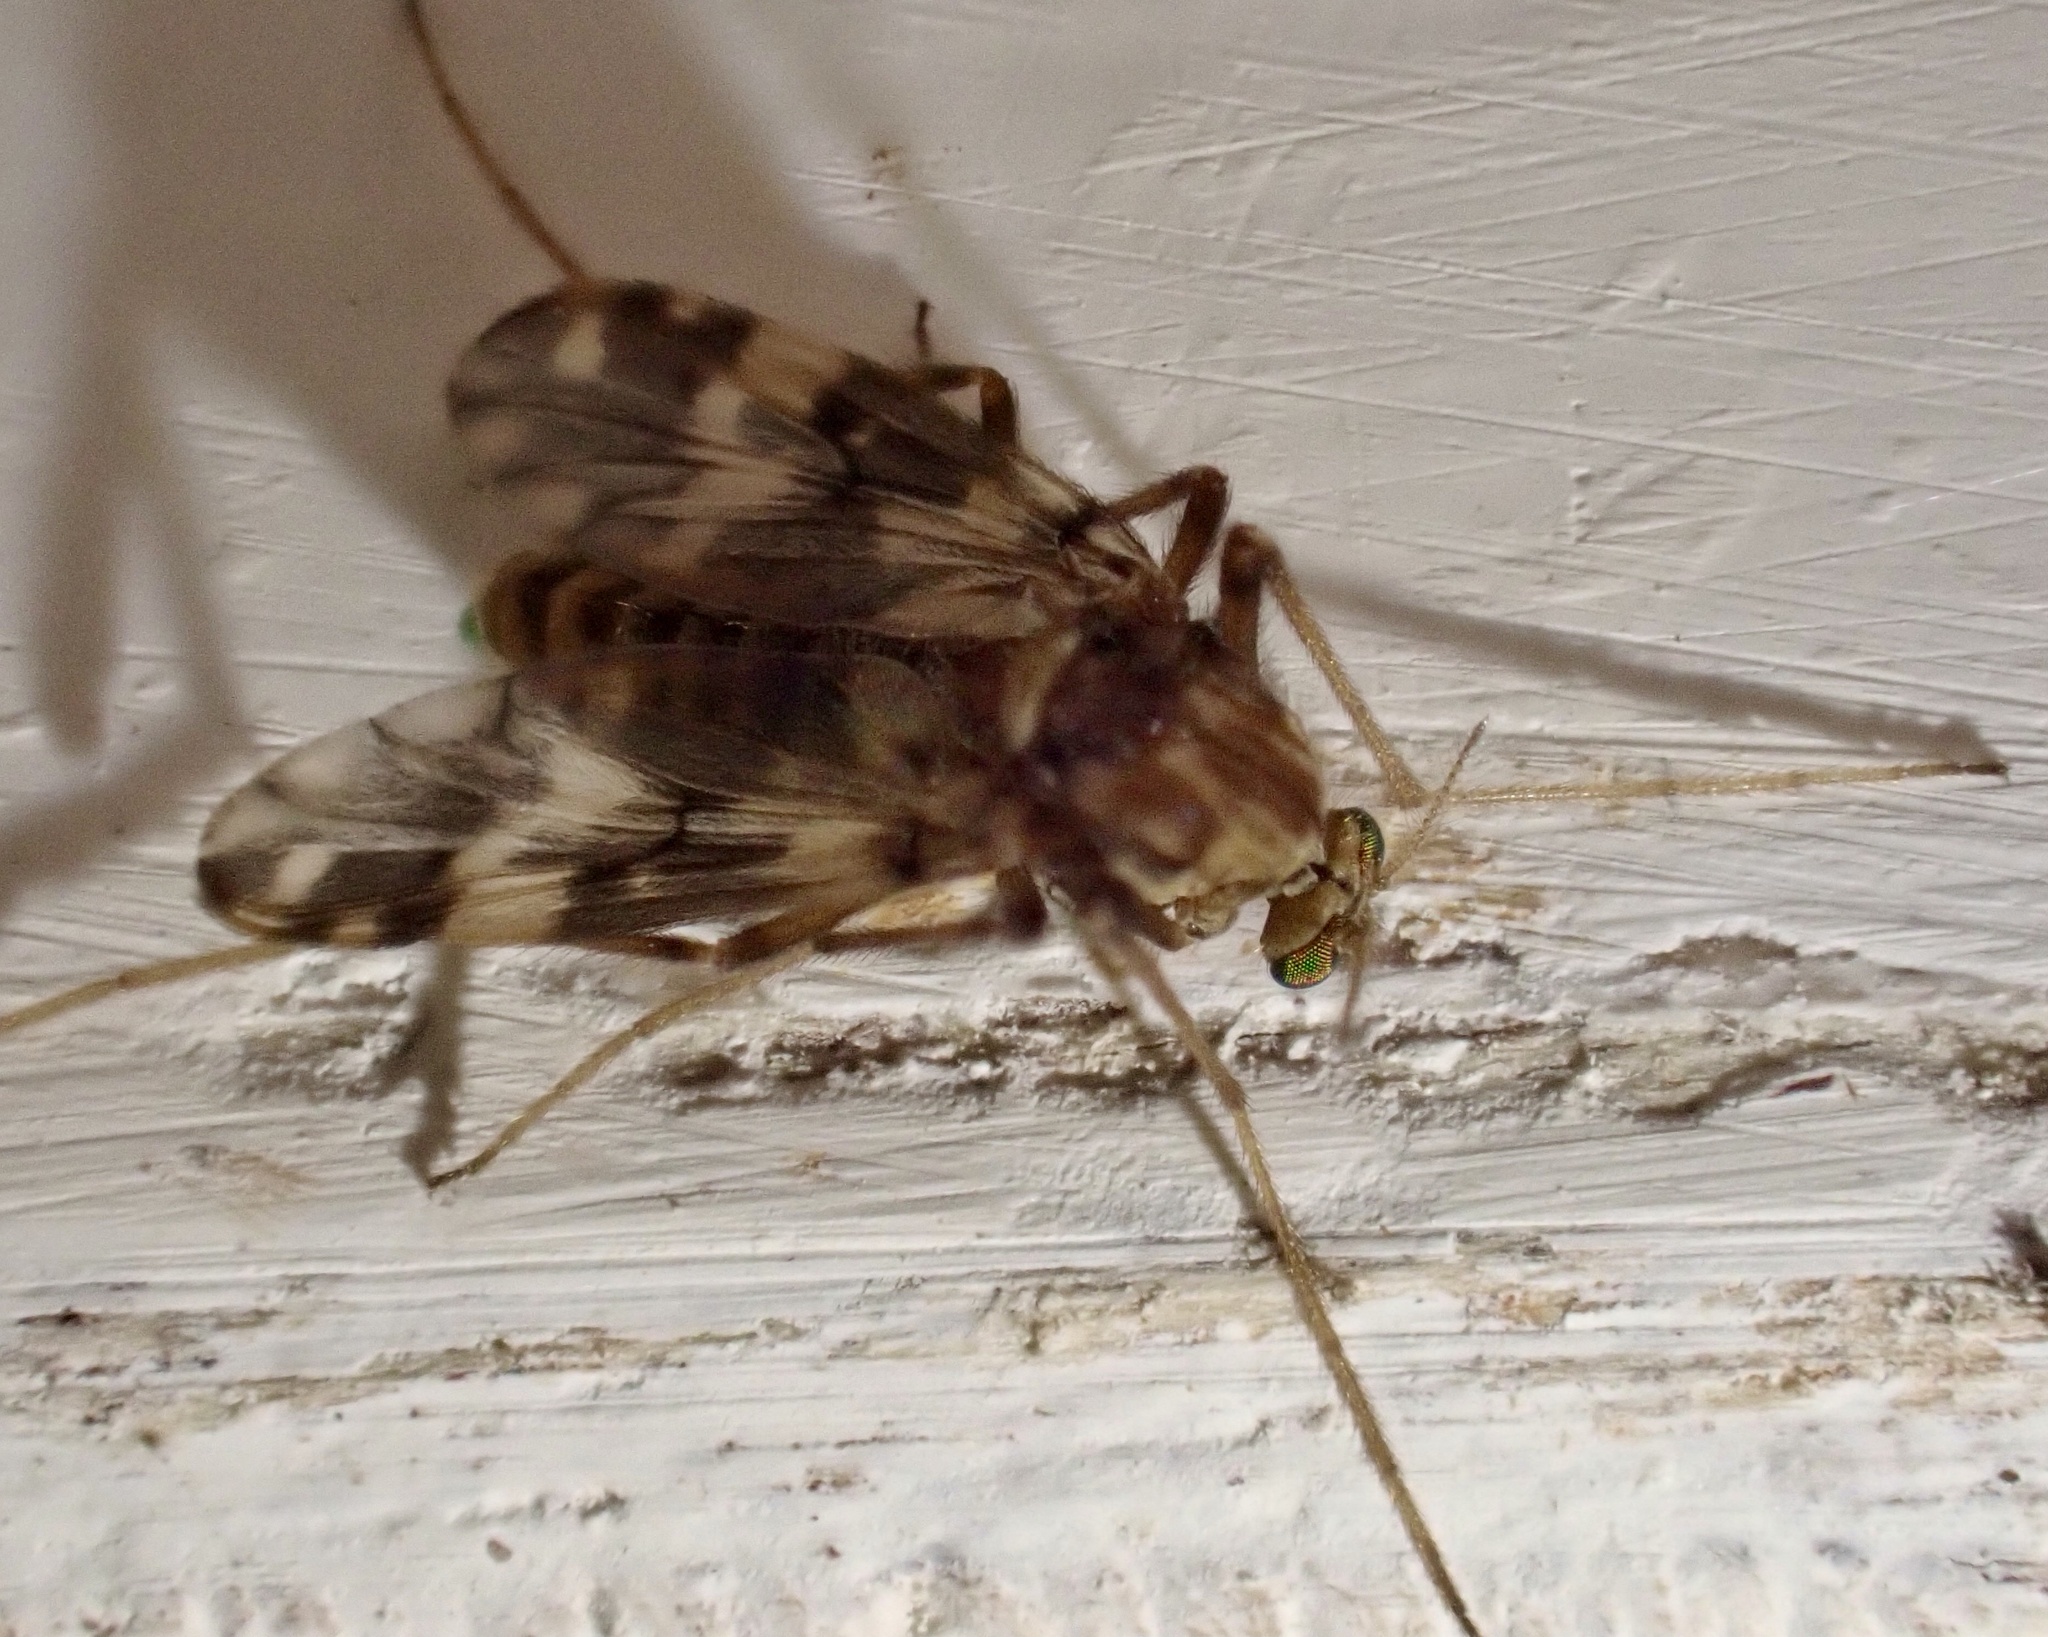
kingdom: Animalia
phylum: Arthropoda
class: Insecta
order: Diptera
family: Chironomidae
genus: Psectrotanypus
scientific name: Psectrotanypus varius
